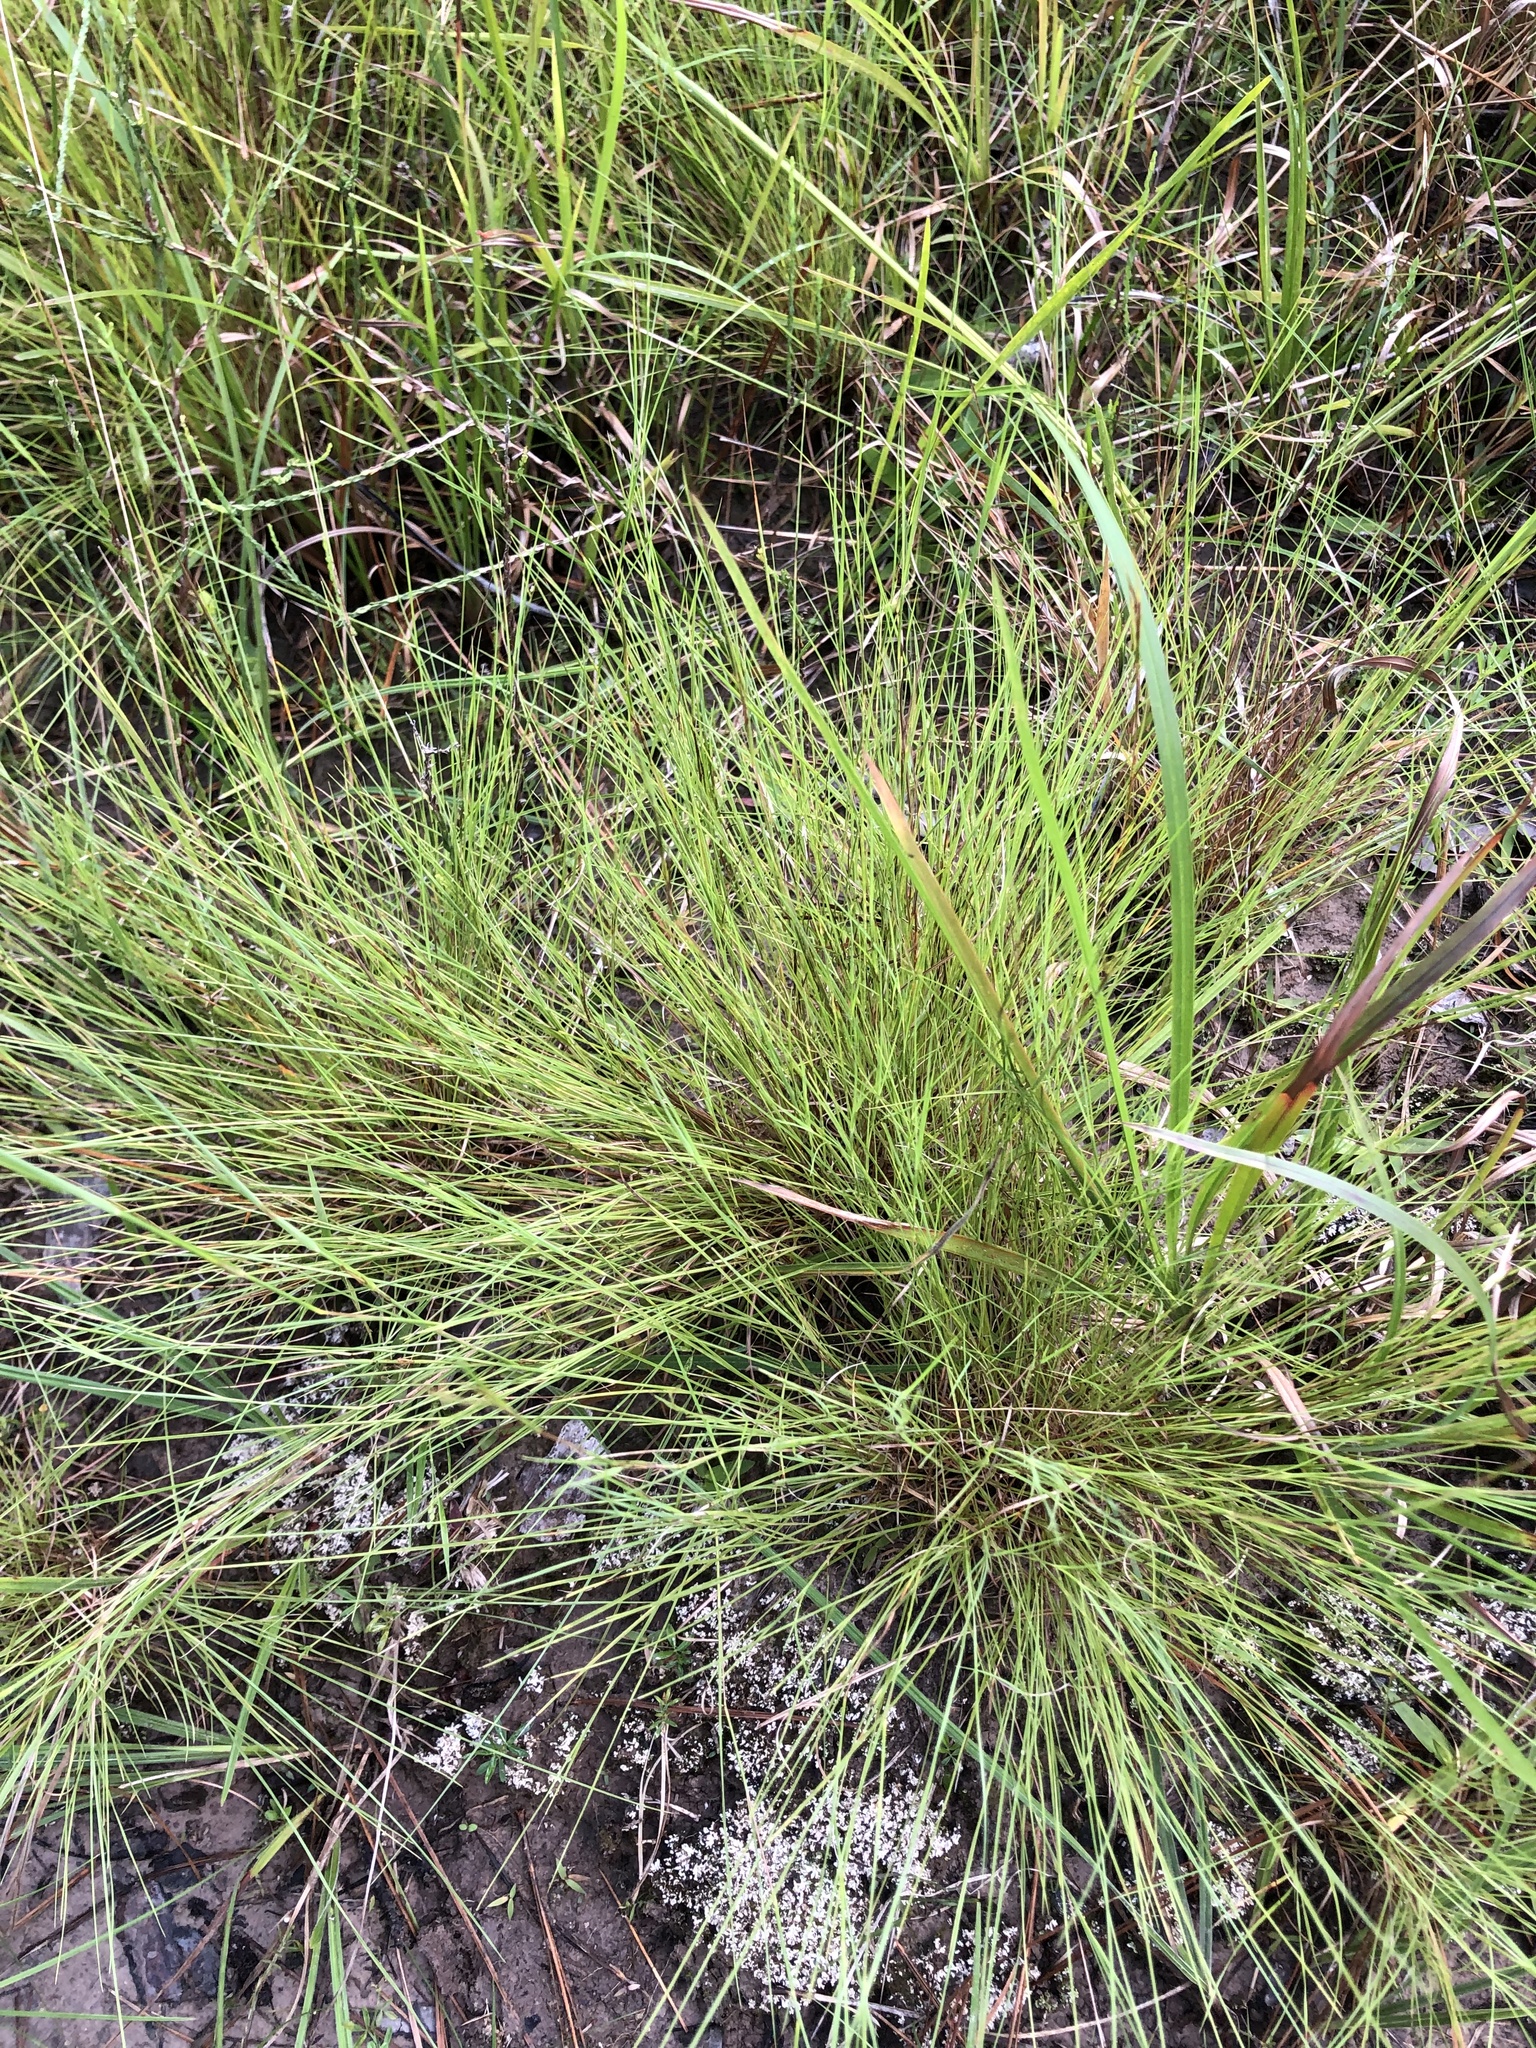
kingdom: Plantae
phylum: Tracheophyta
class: Liliopsida
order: Poales
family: Poaceae
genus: Andropogon
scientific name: Andropogon tener
